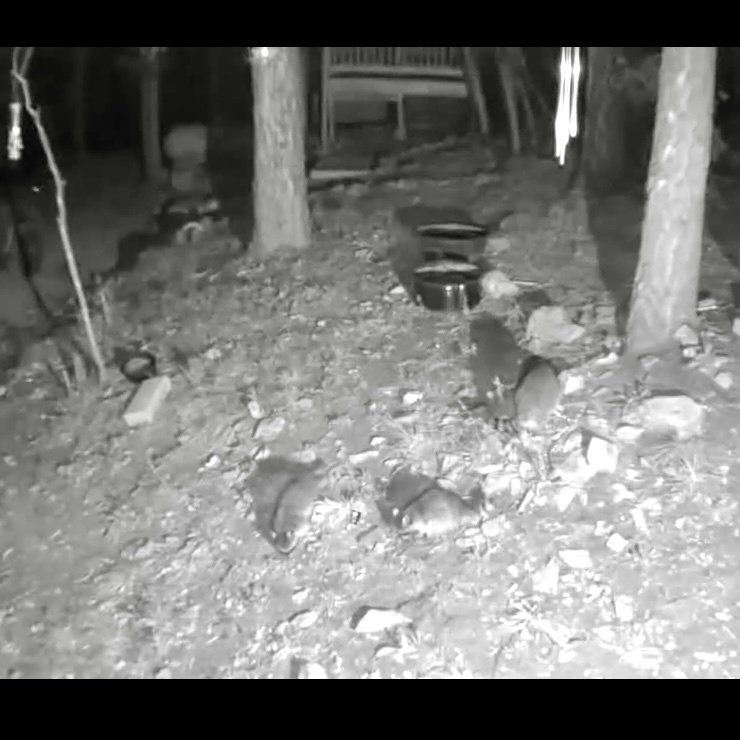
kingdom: Animalia
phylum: Chordata
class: Mammalia
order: Carnivora
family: Procyonidae
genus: Procyon
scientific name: Procyon lotor
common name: Raccoon
